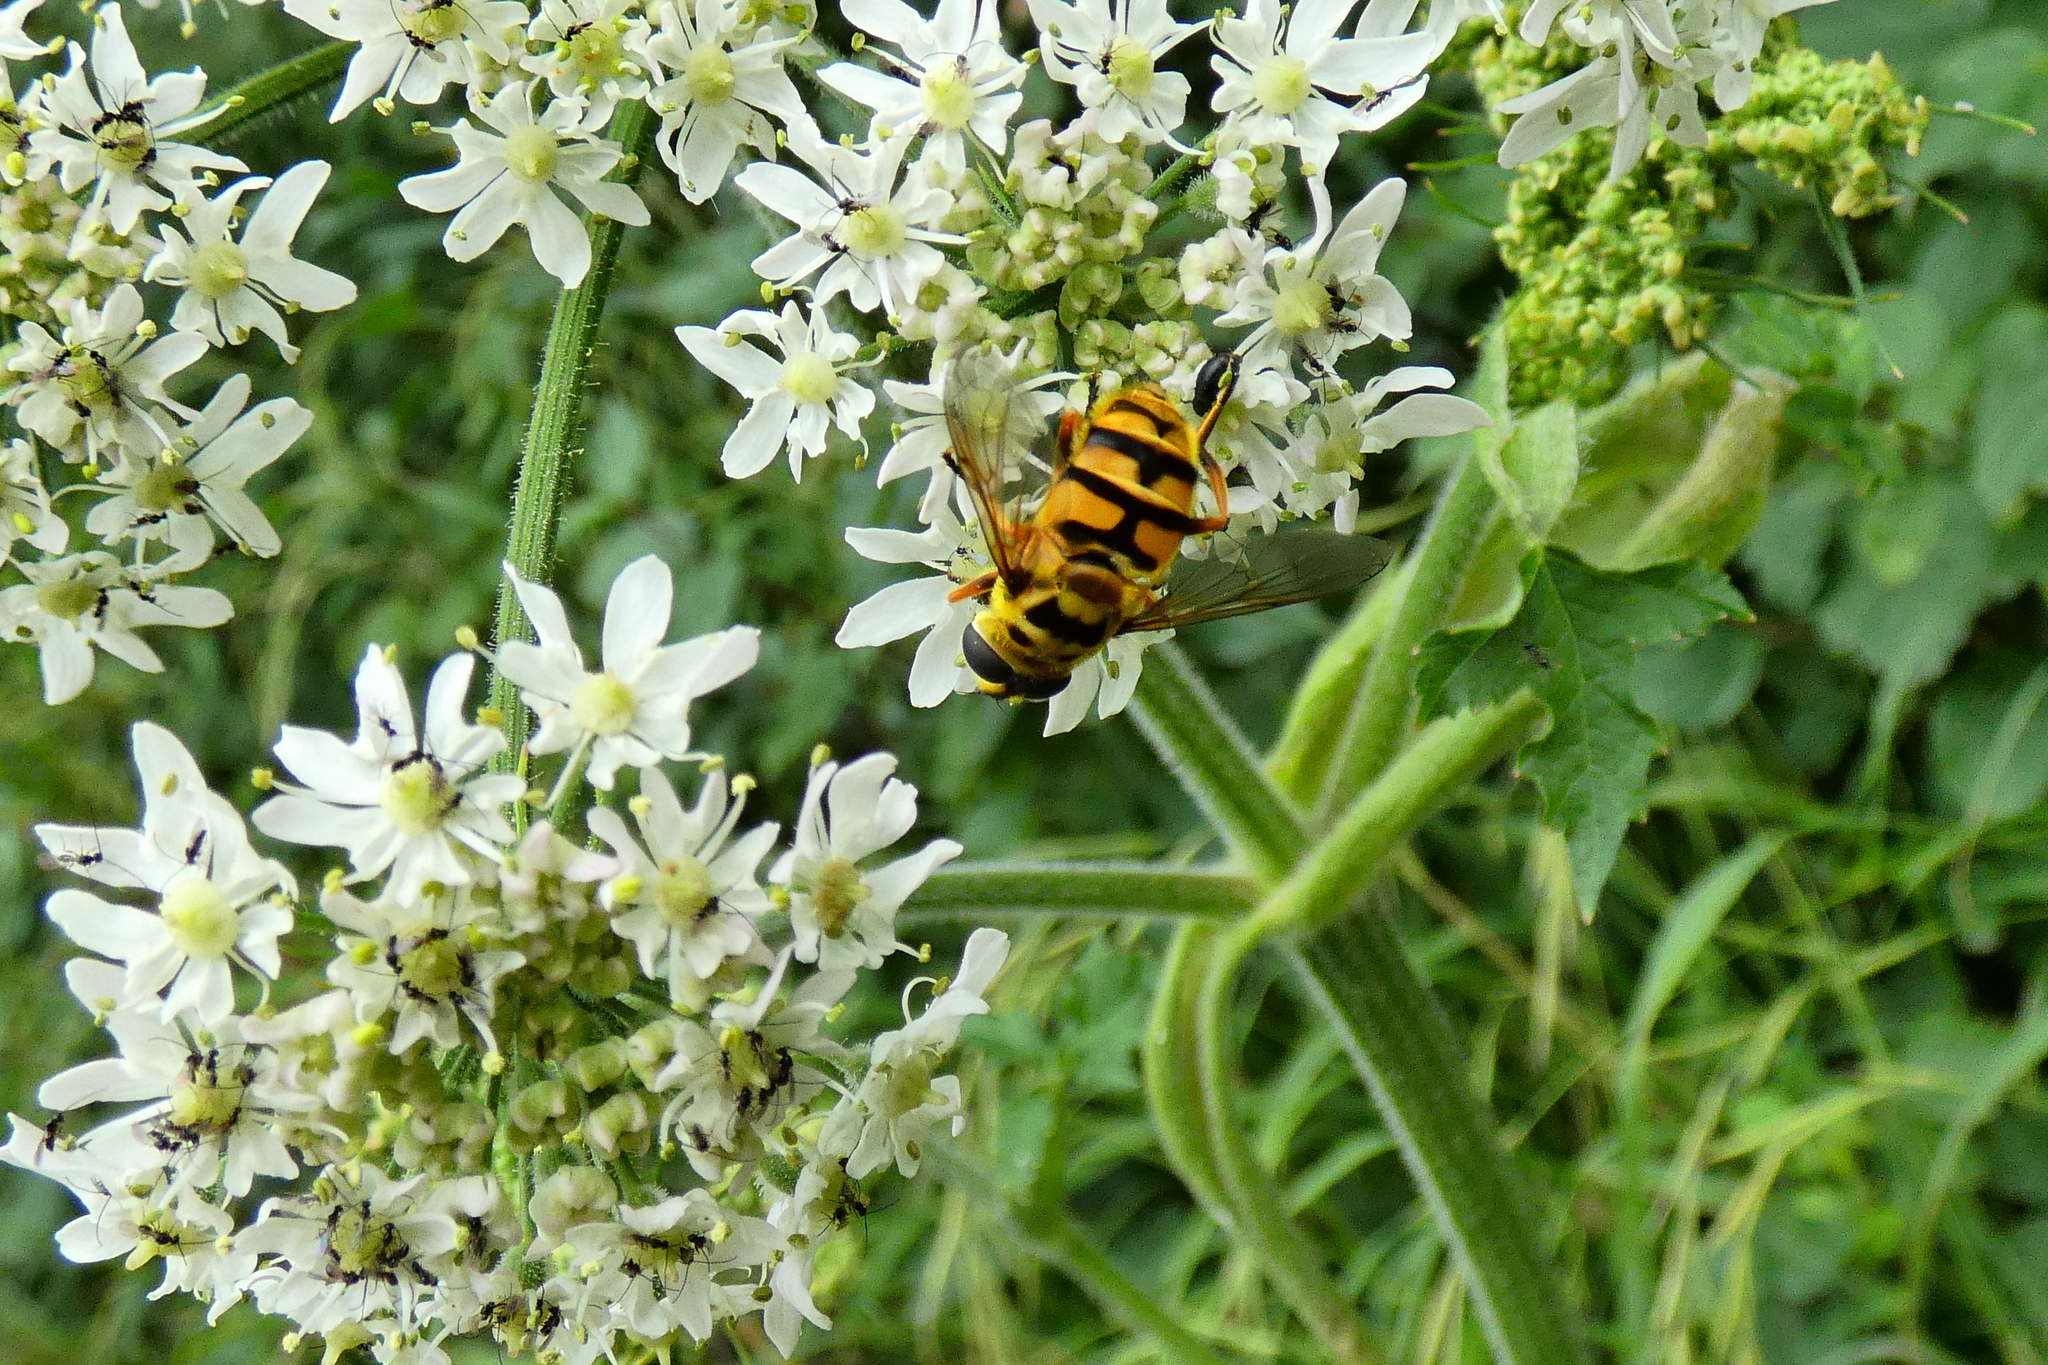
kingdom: Animalia
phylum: Arthropoda
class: Insecta
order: Diptera
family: Syrphidae
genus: Myathropa
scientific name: Myathropa florea
